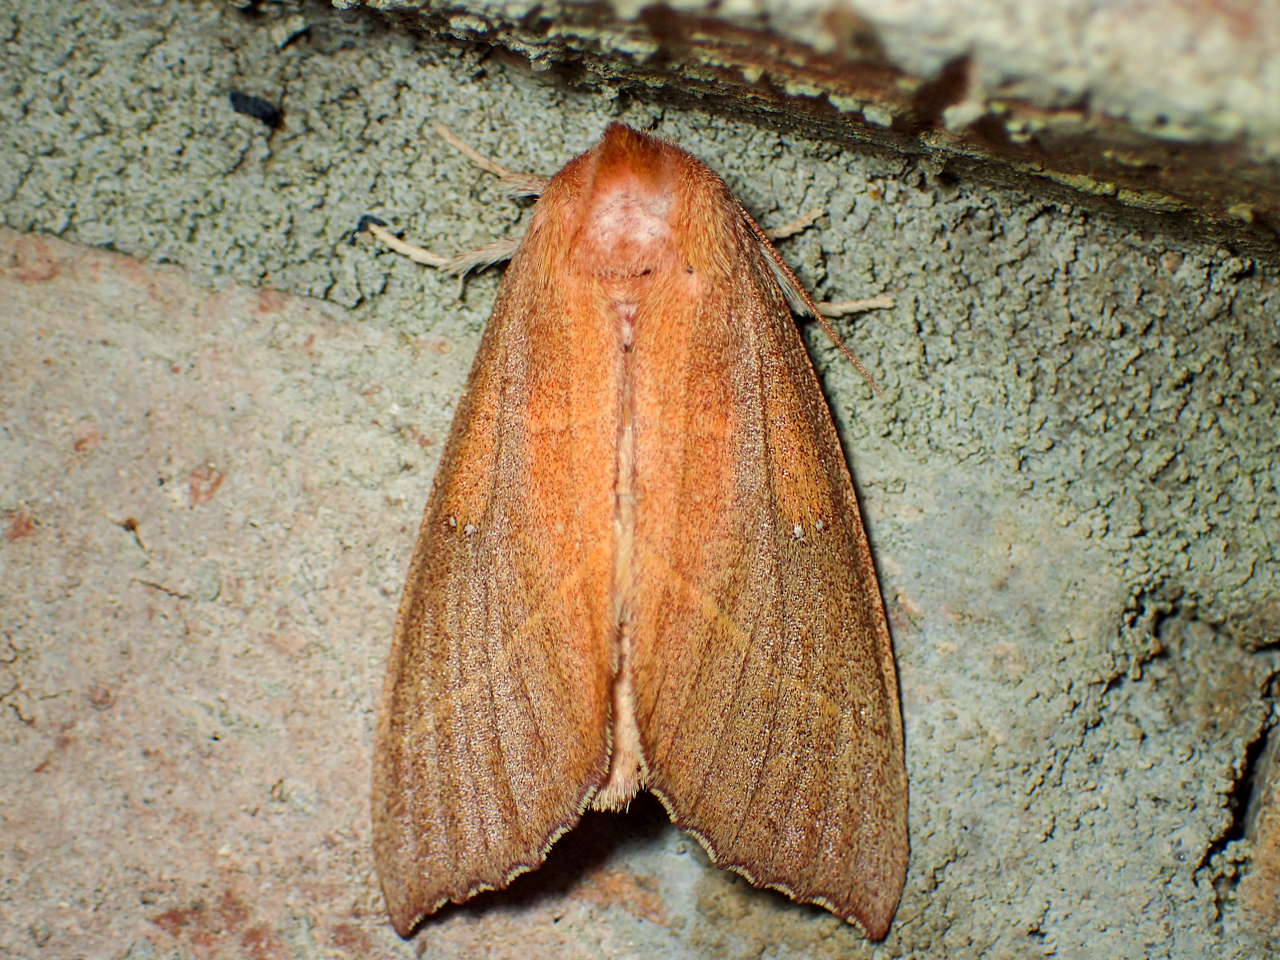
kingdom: Animalia
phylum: Arthropoda
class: Insecta
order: Lepidoptera
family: Notodontidae
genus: Nadata
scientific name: Nadata gibbosa
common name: White-dotted prominent
